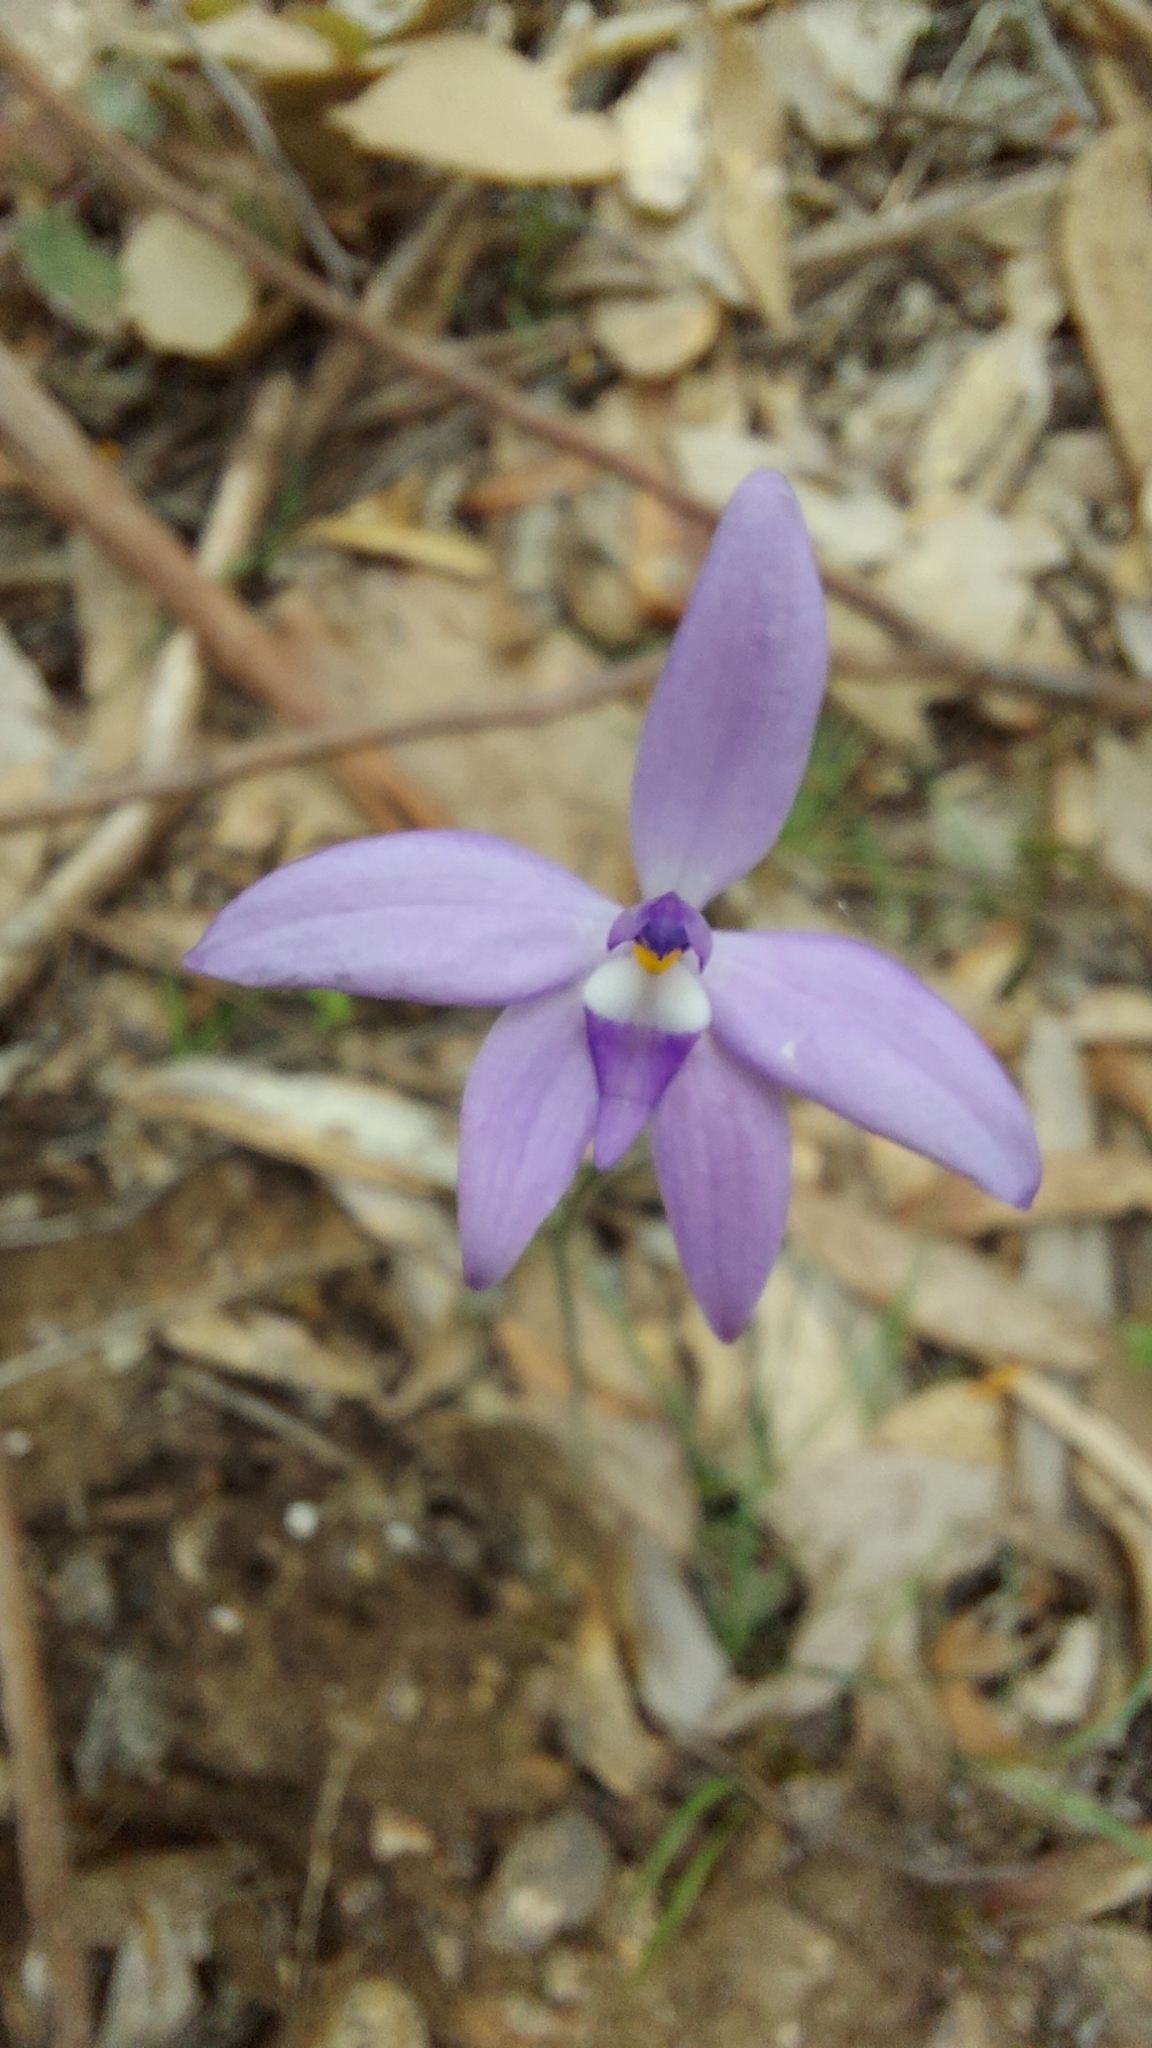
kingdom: Plantae
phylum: Tracheophyta
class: Liliopsida
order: Asparagales
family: Orchidaceae
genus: Caladenia
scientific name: Caladenia major
